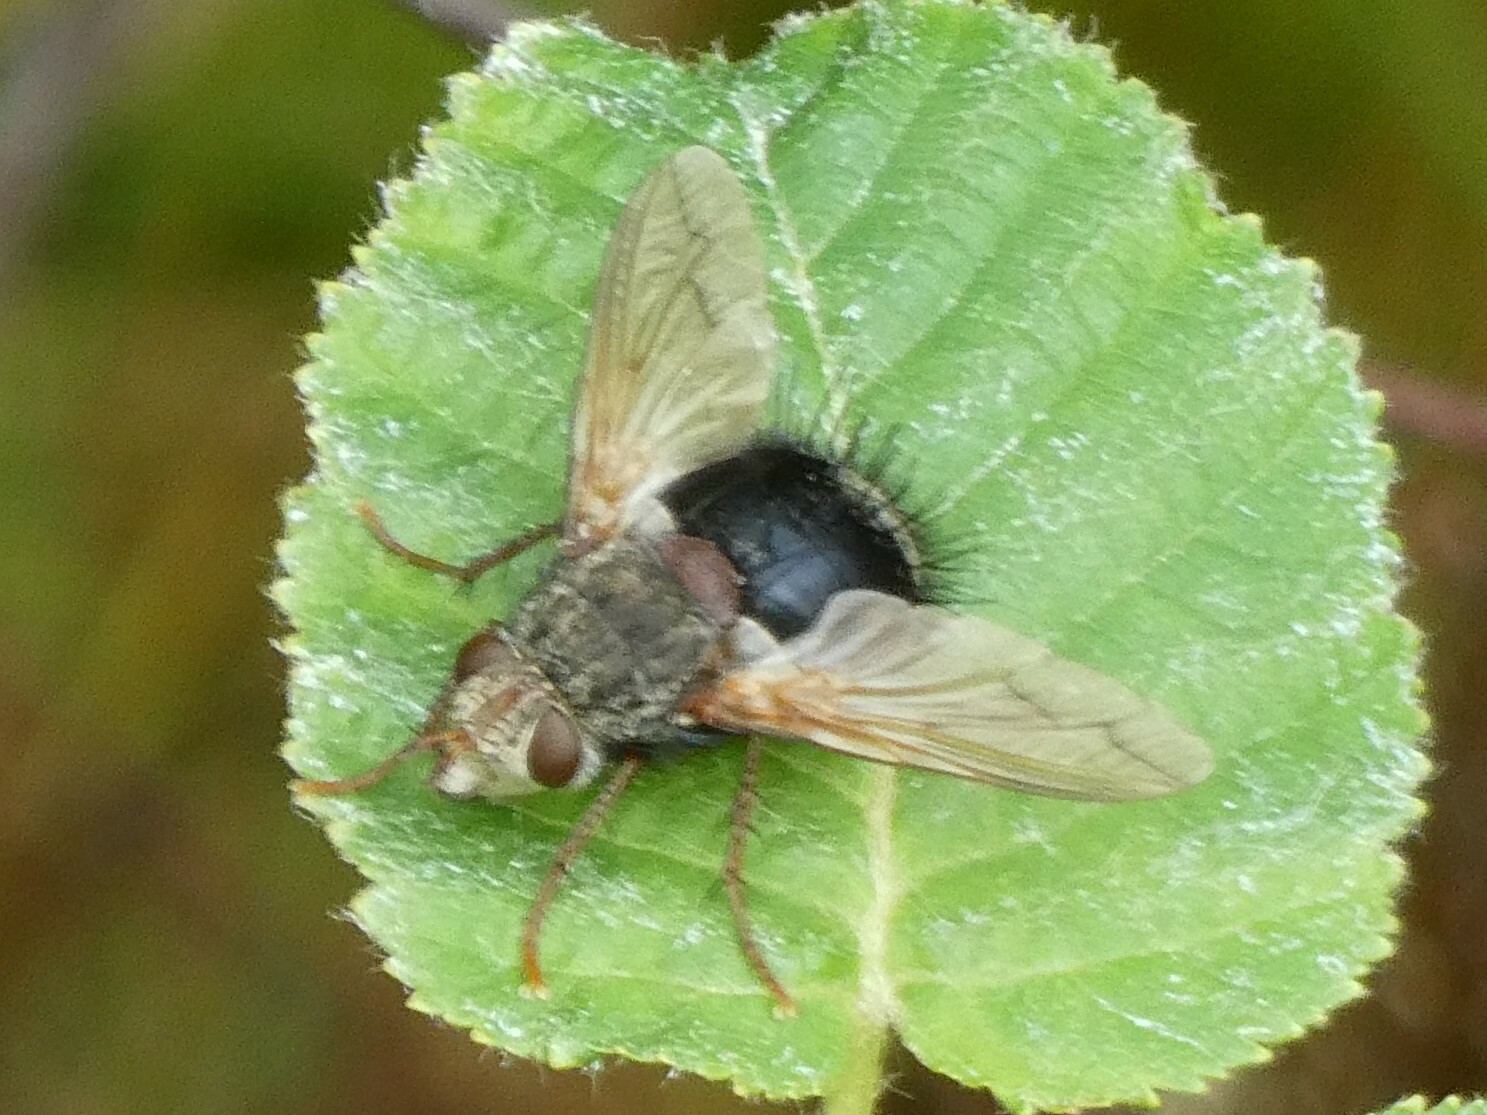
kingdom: Animalia
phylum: Arthropoda
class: Insecta
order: Diptera
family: Tachinidae
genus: Epalpus
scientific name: Epalpus signifer
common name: Early tachinid fly
